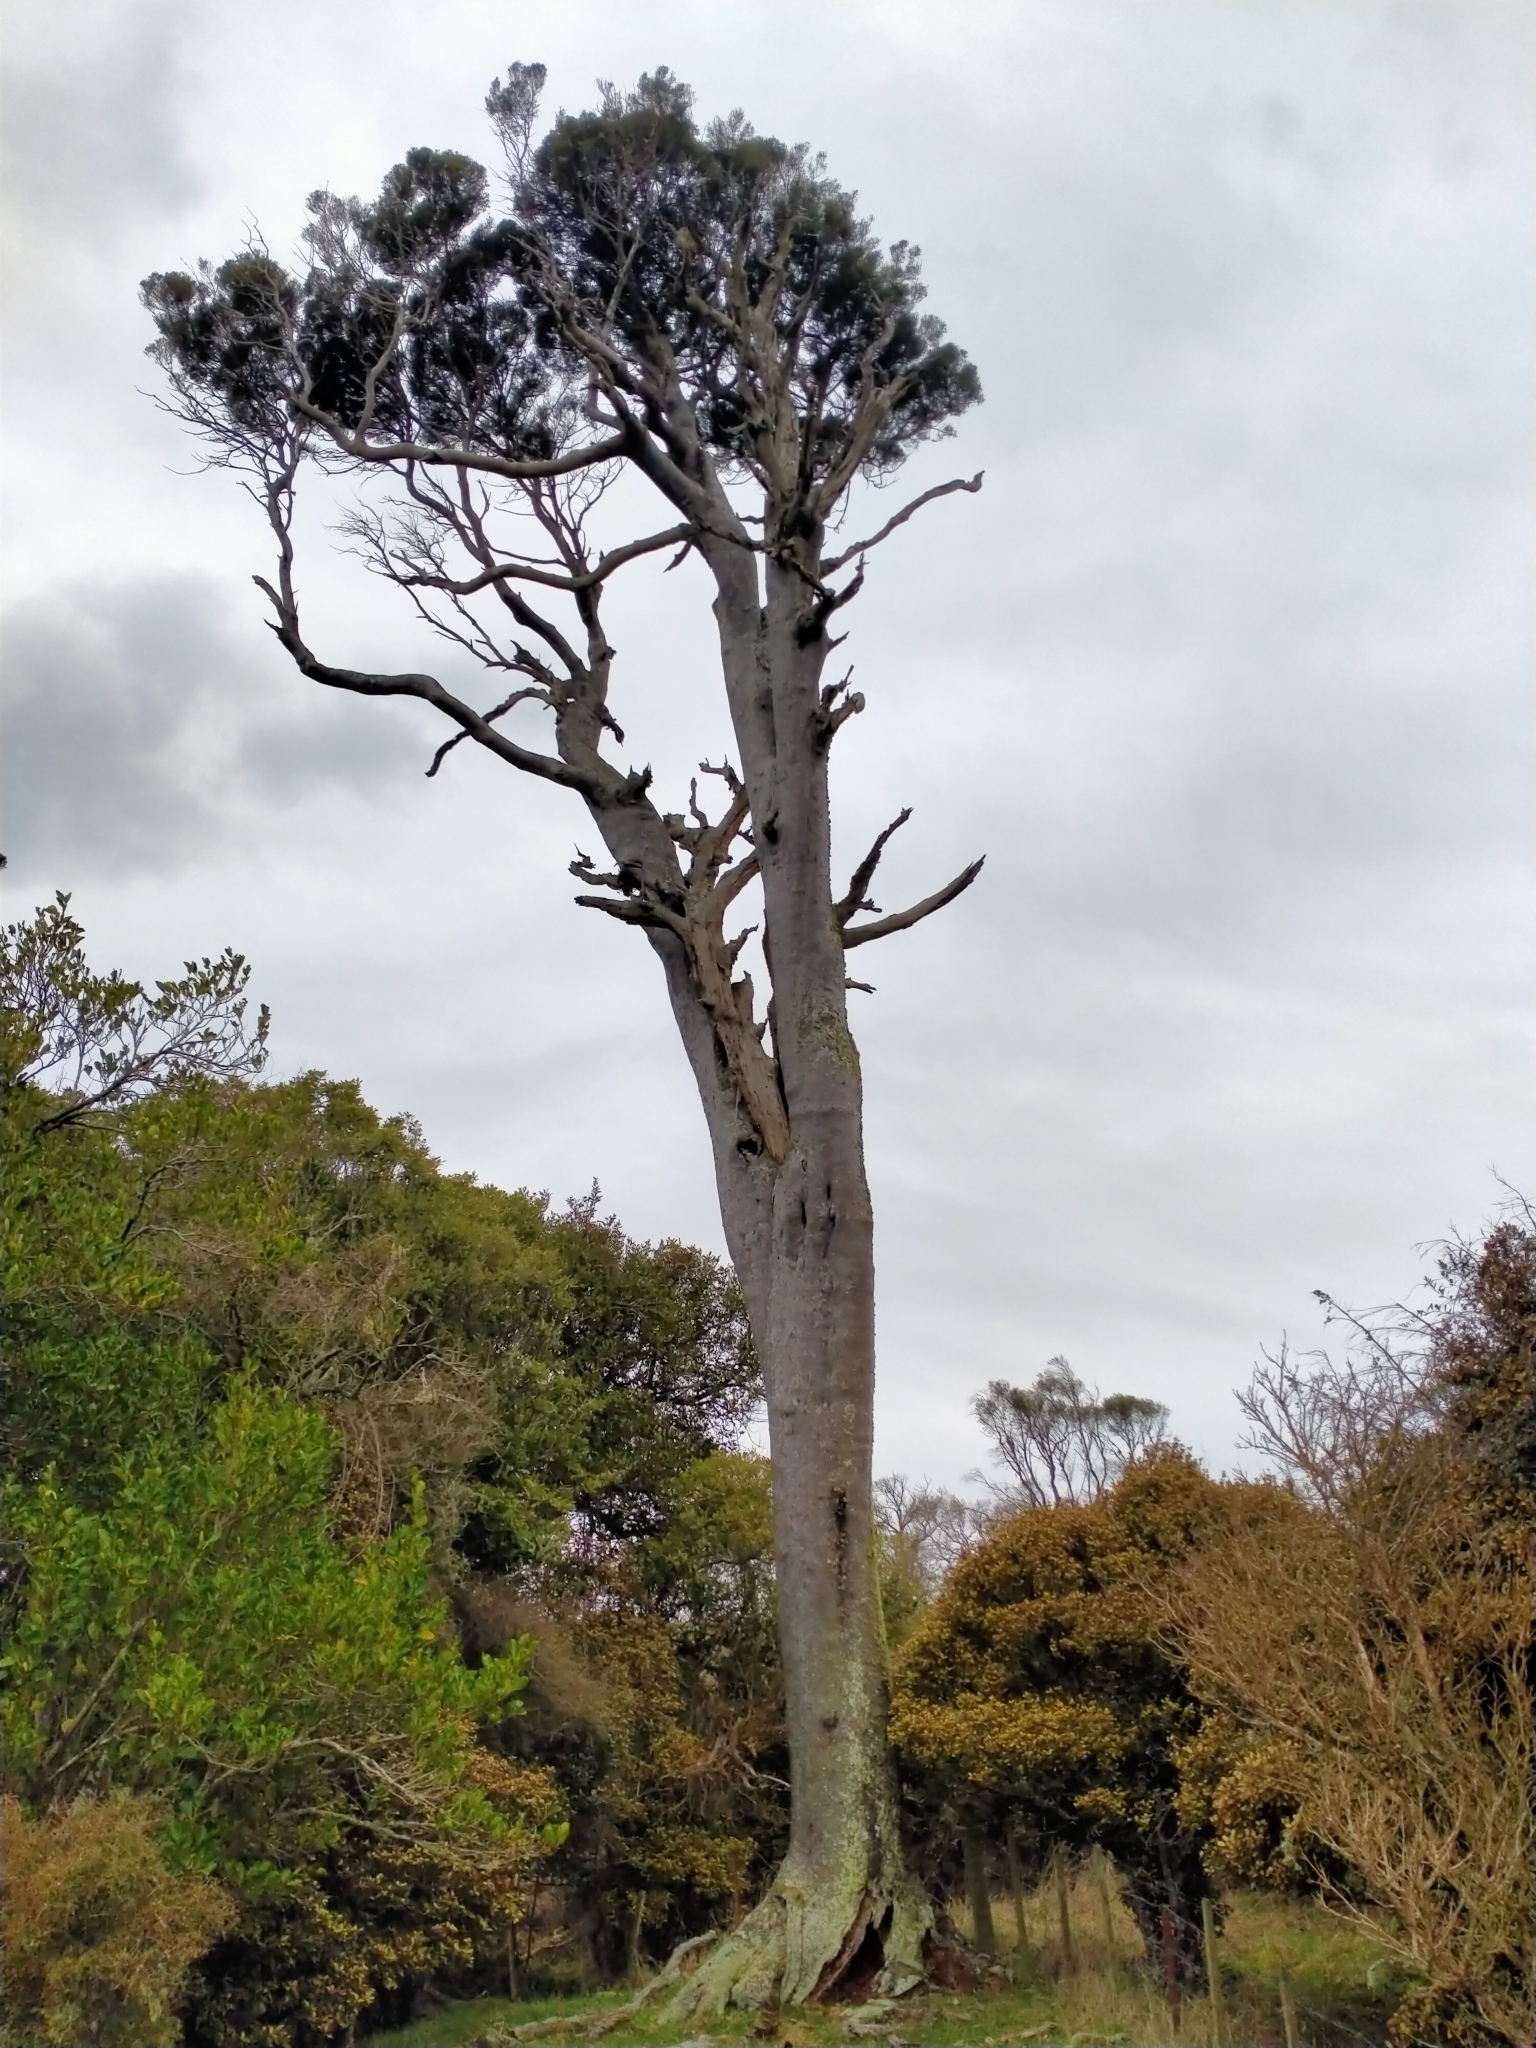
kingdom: Plantae
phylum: Tracheophyta
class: Pinopsida
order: Pinales
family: Podocarpaceae
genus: Prumnopitys
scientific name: Prumnopitys taxifolia
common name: Matai
